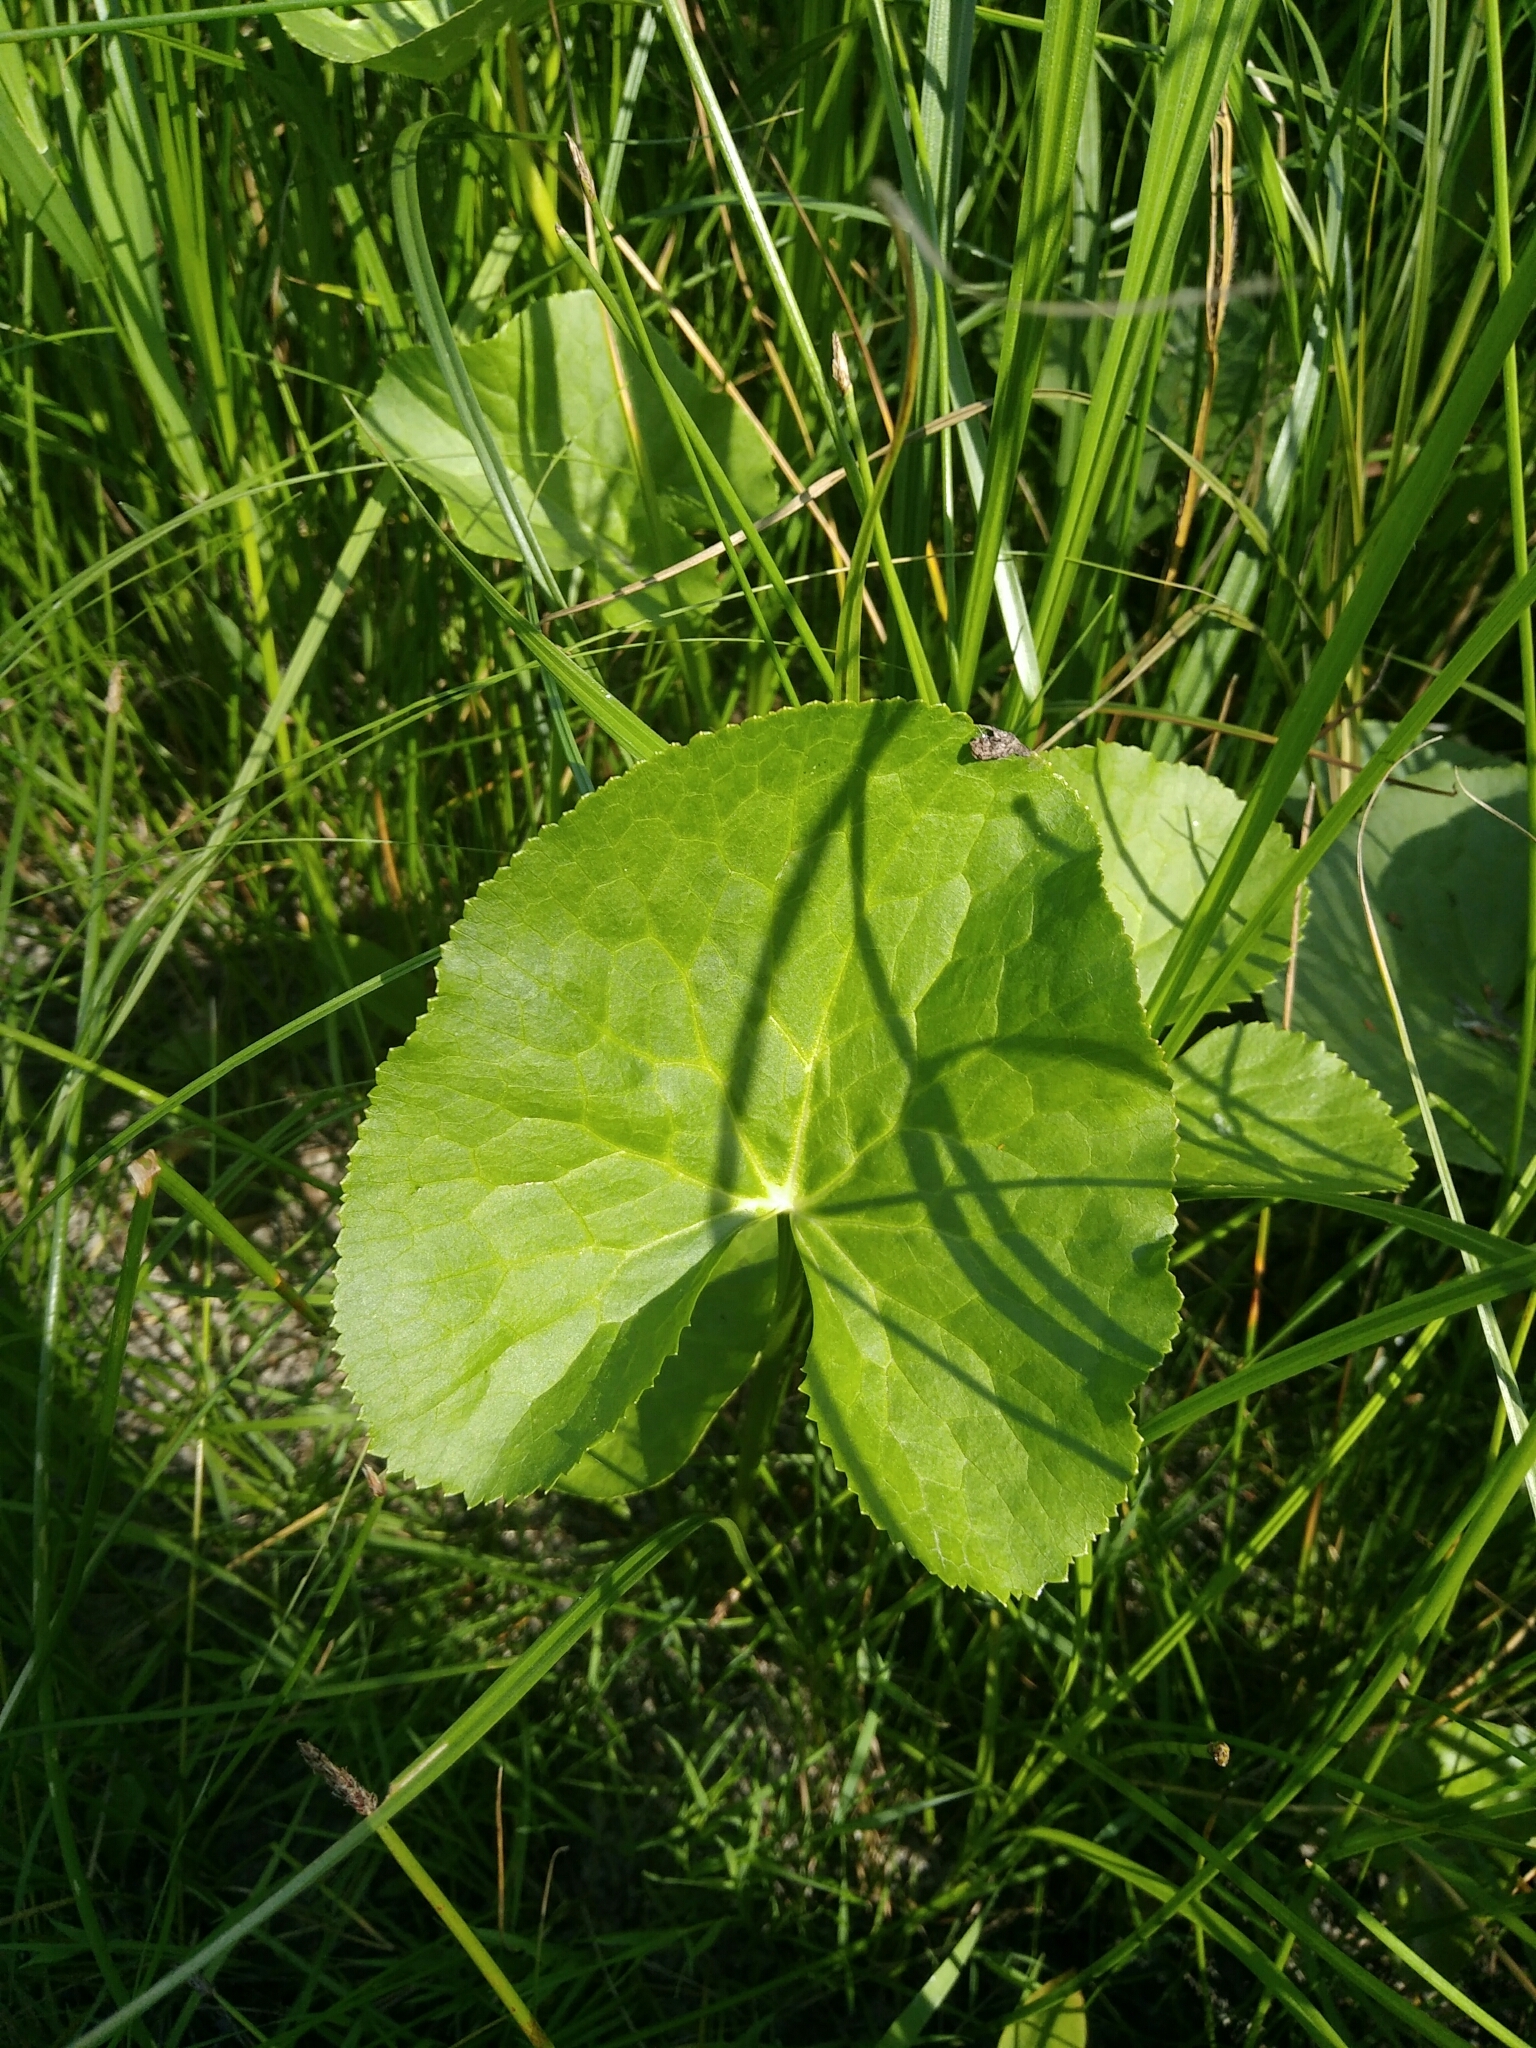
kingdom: Plantae
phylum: Tracheophyta
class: Magnoliopsida
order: Ranunculales
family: Ranunculaceae
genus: Caltha
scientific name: Caltha palustris
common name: Marsh marigold
